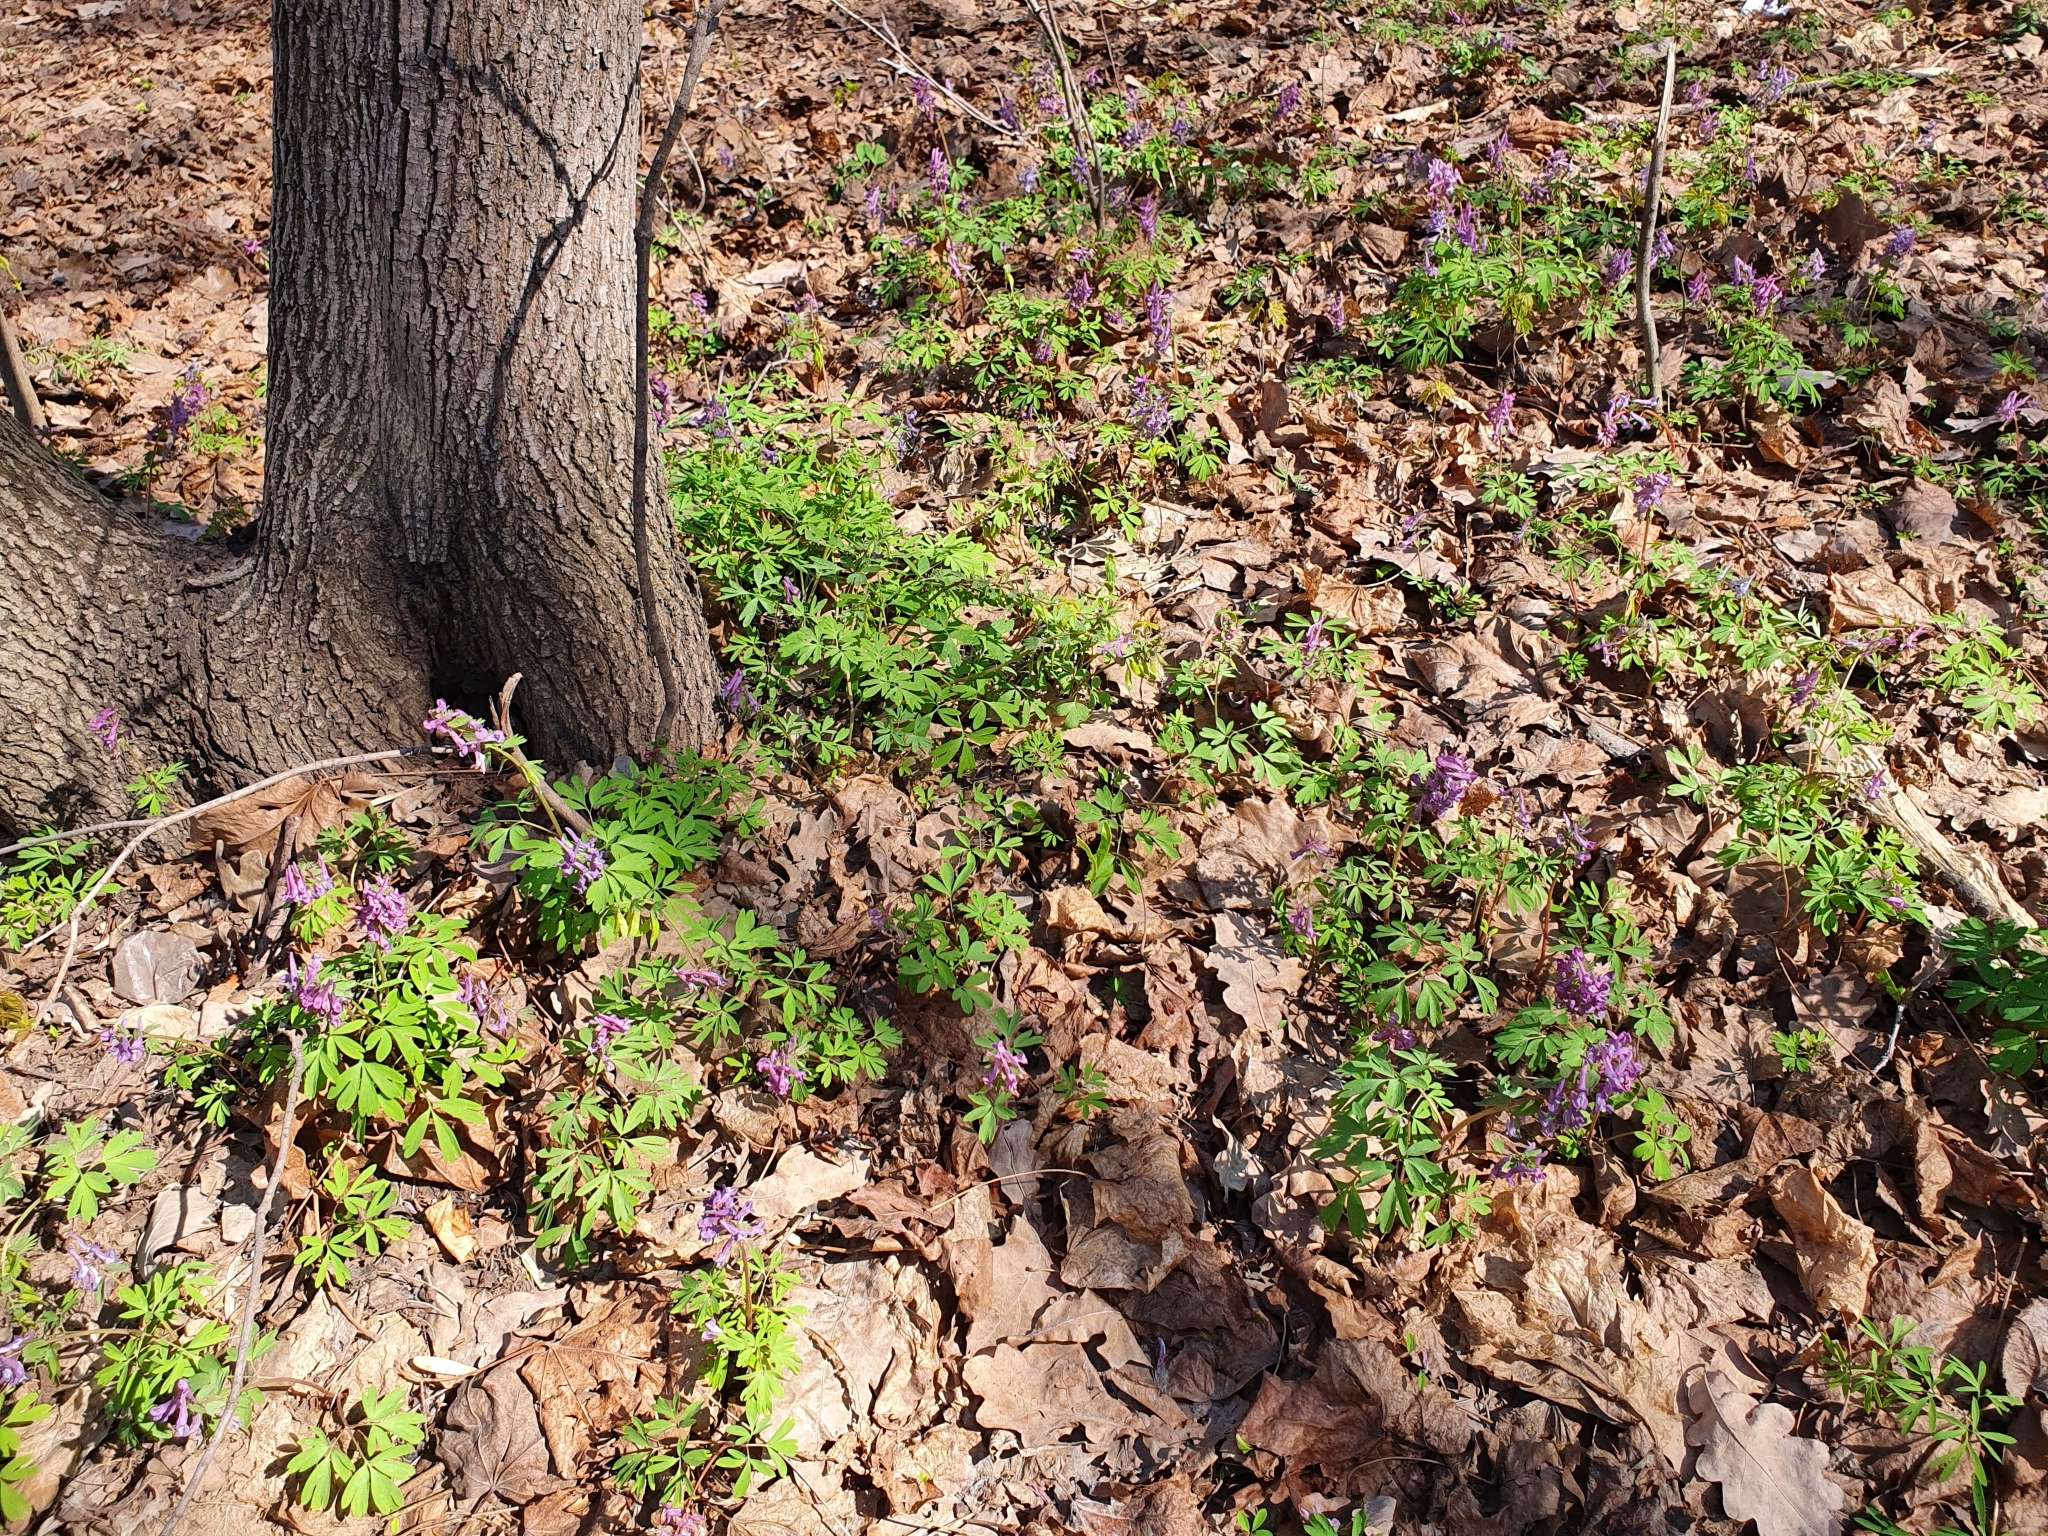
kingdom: Plantae
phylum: Tracheophyta
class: Magnoliopsida
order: Ranunculales
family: Papaveraceae
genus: Corydalis
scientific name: Corydalis solida
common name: Bird-in-a-bush
